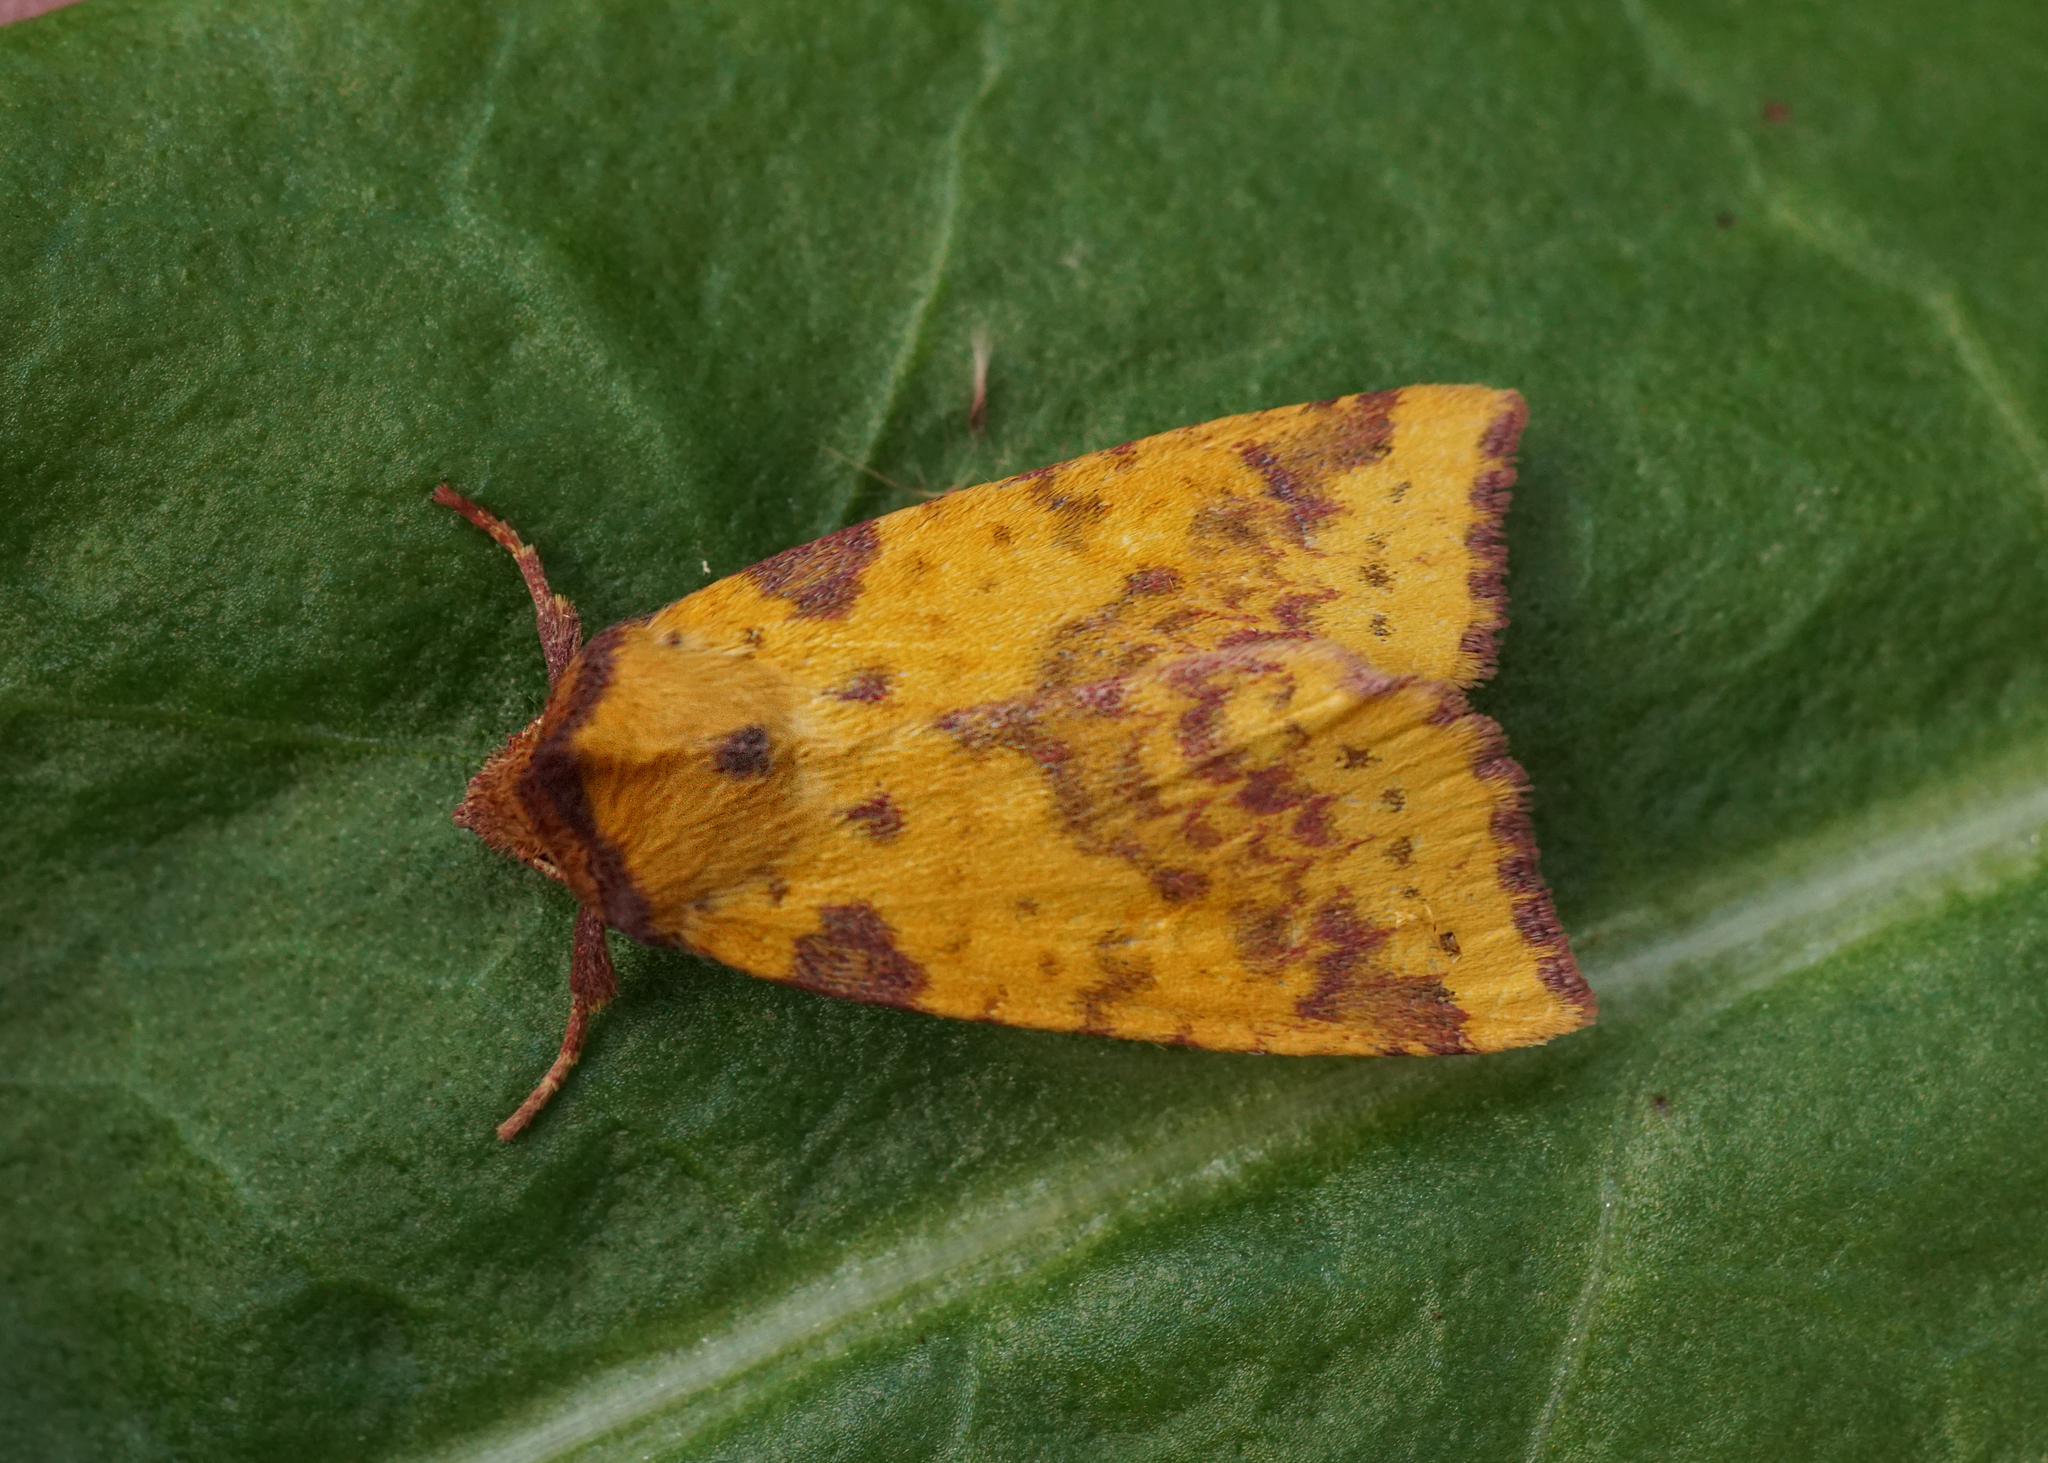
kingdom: Animalia
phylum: Arthropoda
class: Insecta
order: Lepidoptera
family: Noctuidae
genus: Xanthia
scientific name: Xanthia togata
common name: Pink-barred sallow
